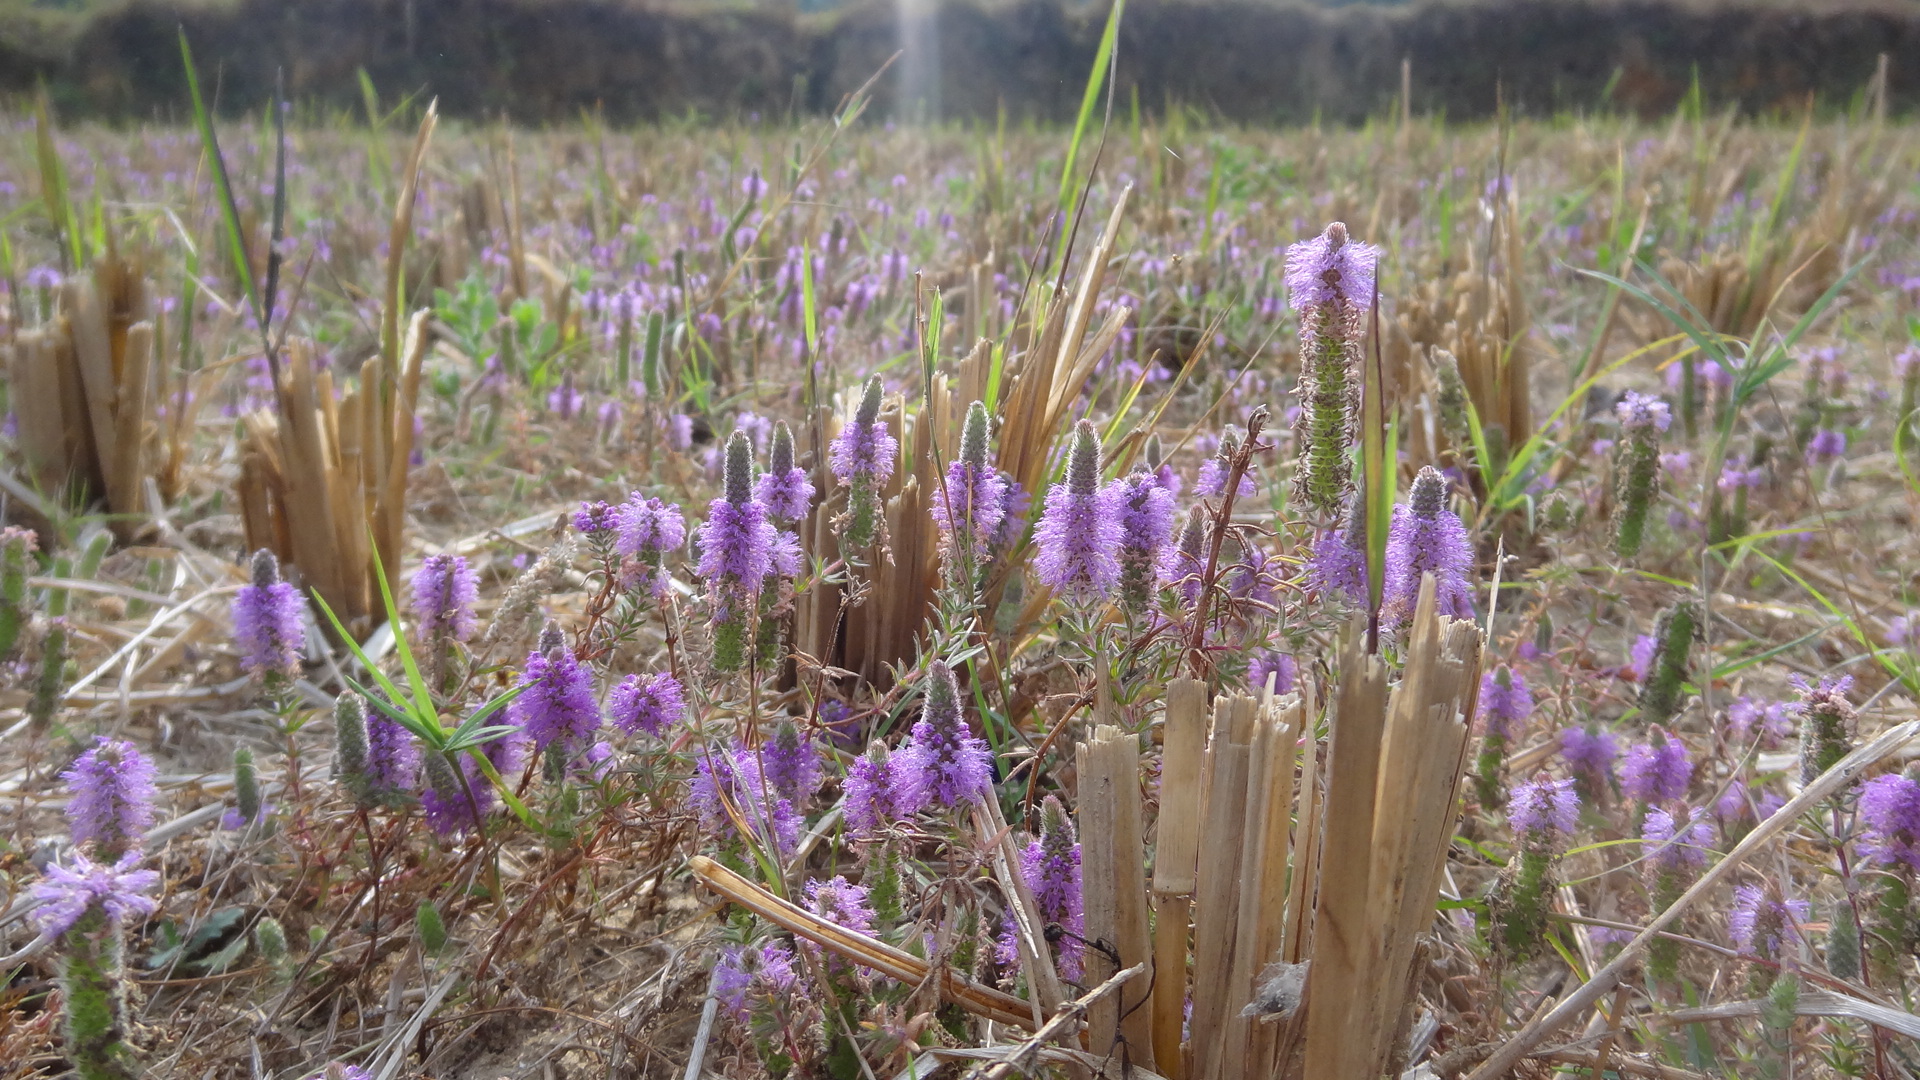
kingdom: Plantae
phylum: Tracheophyta
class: Magnoliopsida
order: Lamiales
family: Lamiaceae
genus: Pogostemon
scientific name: Pogostemon deccanensis
